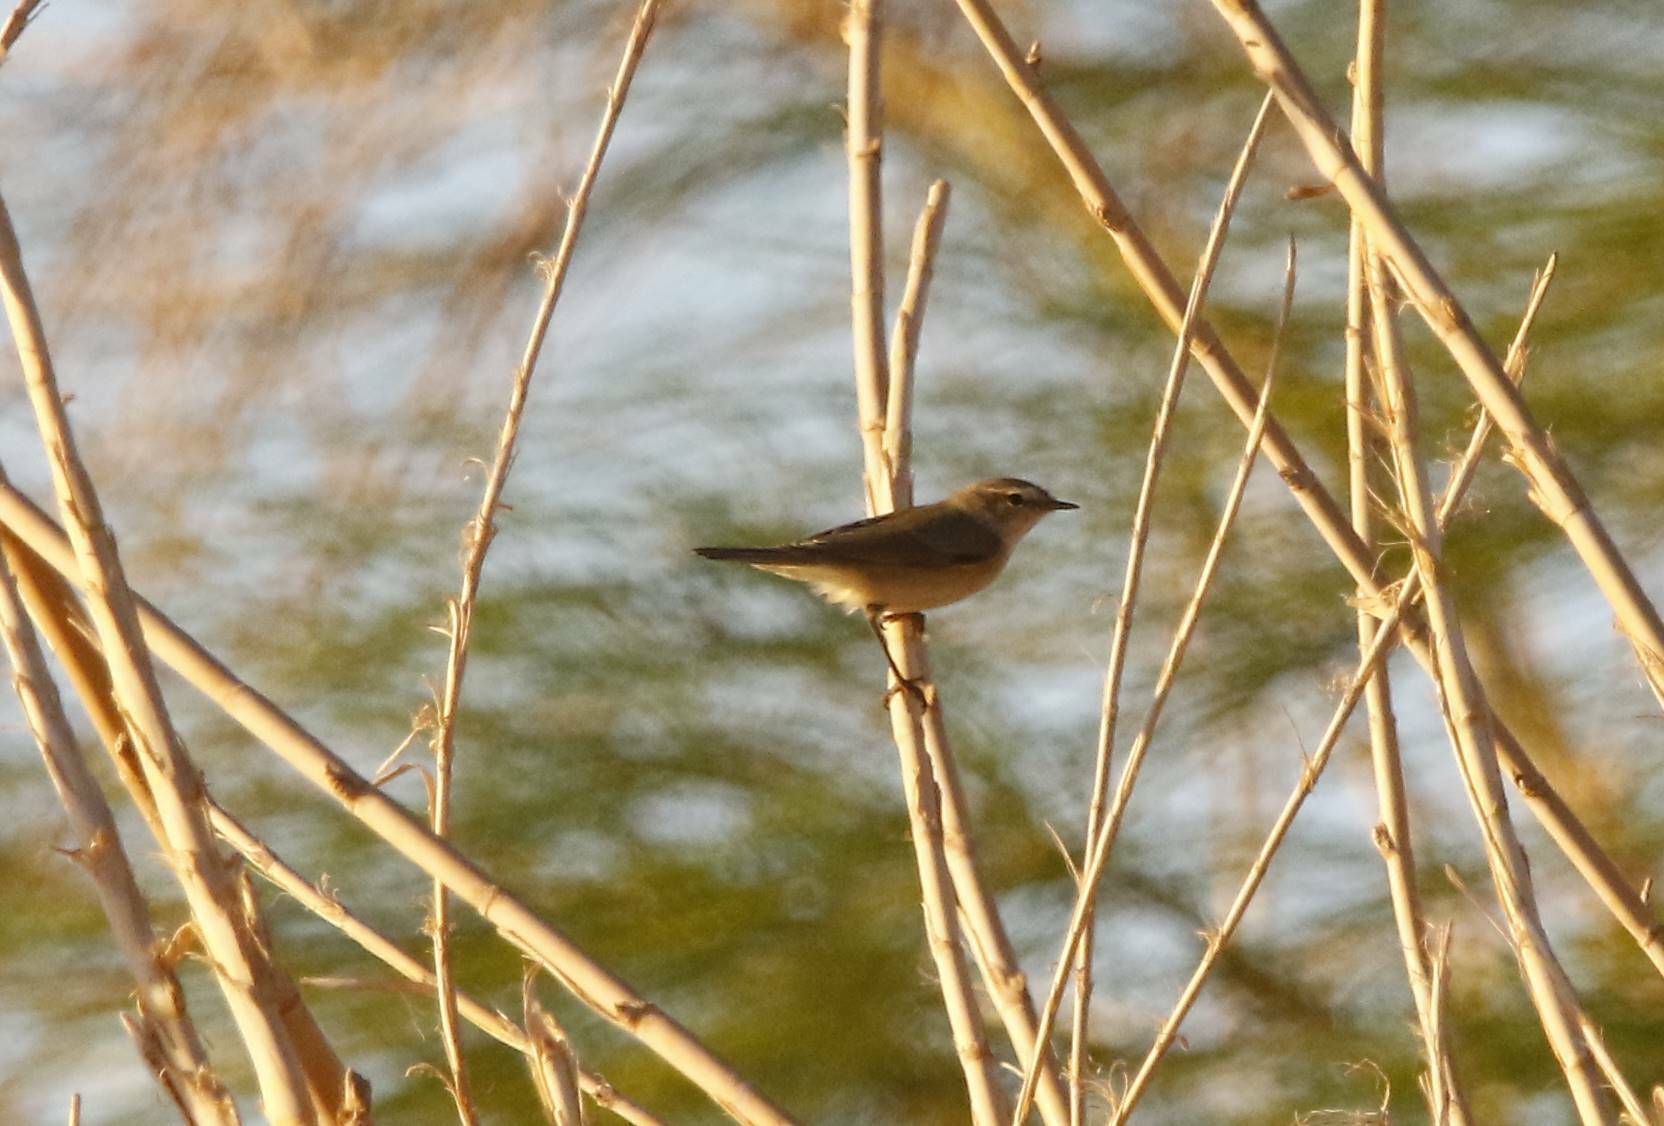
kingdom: Animalia
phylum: Chordata
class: Aves
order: Passeriformes
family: Phylloscopidae
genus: Phylloscopus
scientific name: Phylloscopus collybita
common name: Common chiffchaff
